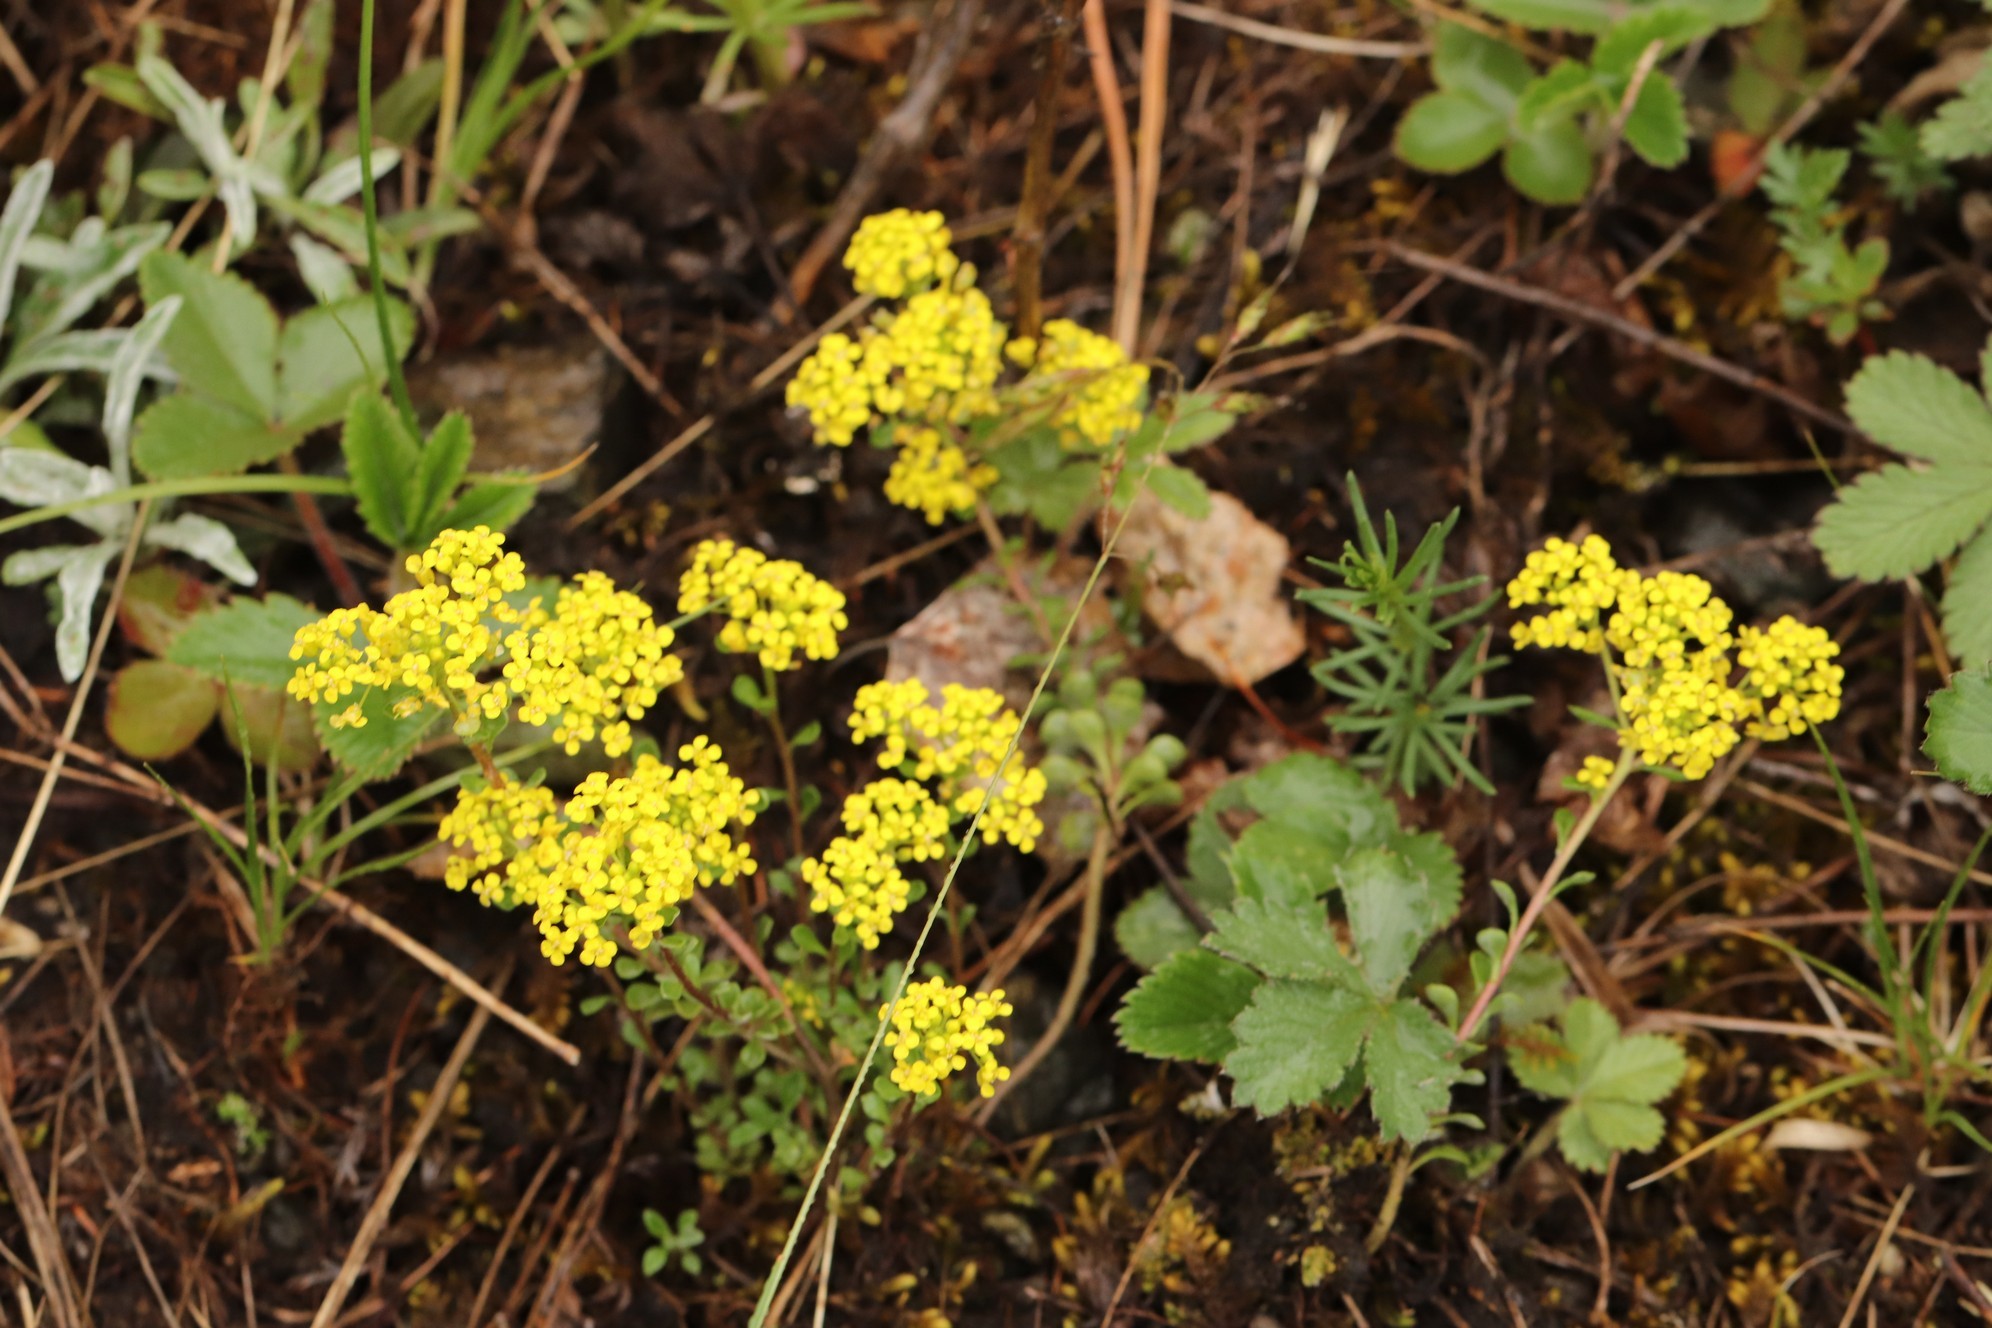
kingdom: Plantae
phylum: Tracheophyta
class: Magnoliopsida
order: Brassicales
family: Brassicaceae
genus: Odontarrhena
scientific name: Odontarrhena obovata
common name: American alyssum
